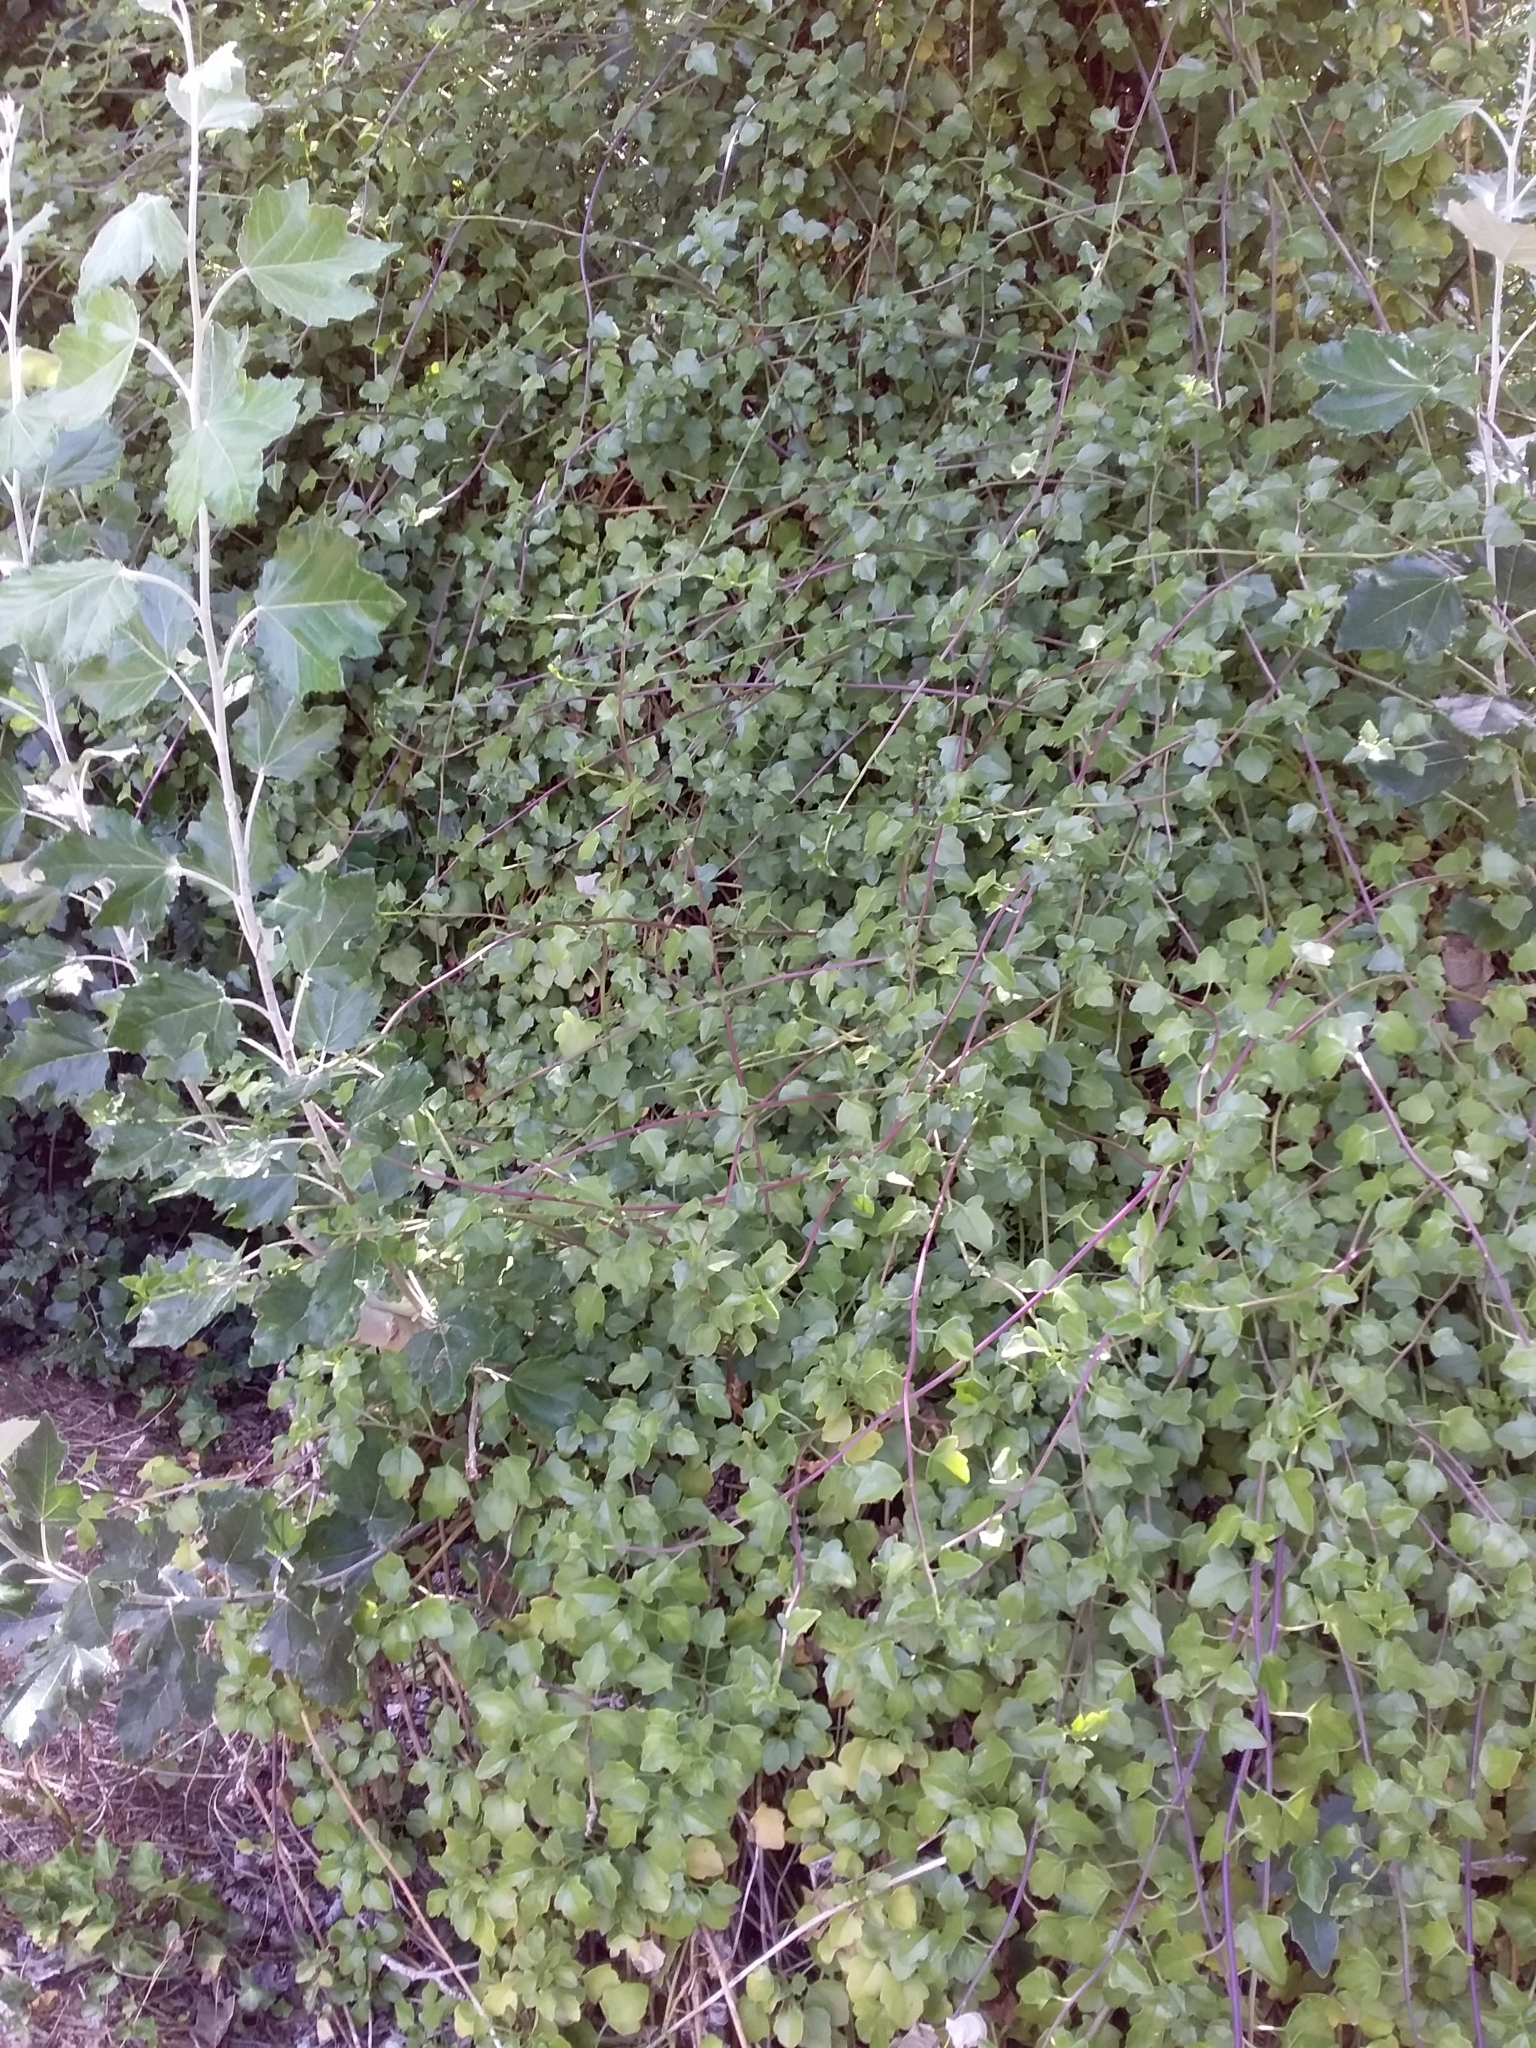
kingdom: Plantae
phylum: Tracheophyta
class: Magnoliopsida
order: Asterales
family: Asteraceae
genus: Senecio
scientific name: Senecio angulatus
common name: Climbing groundsel
